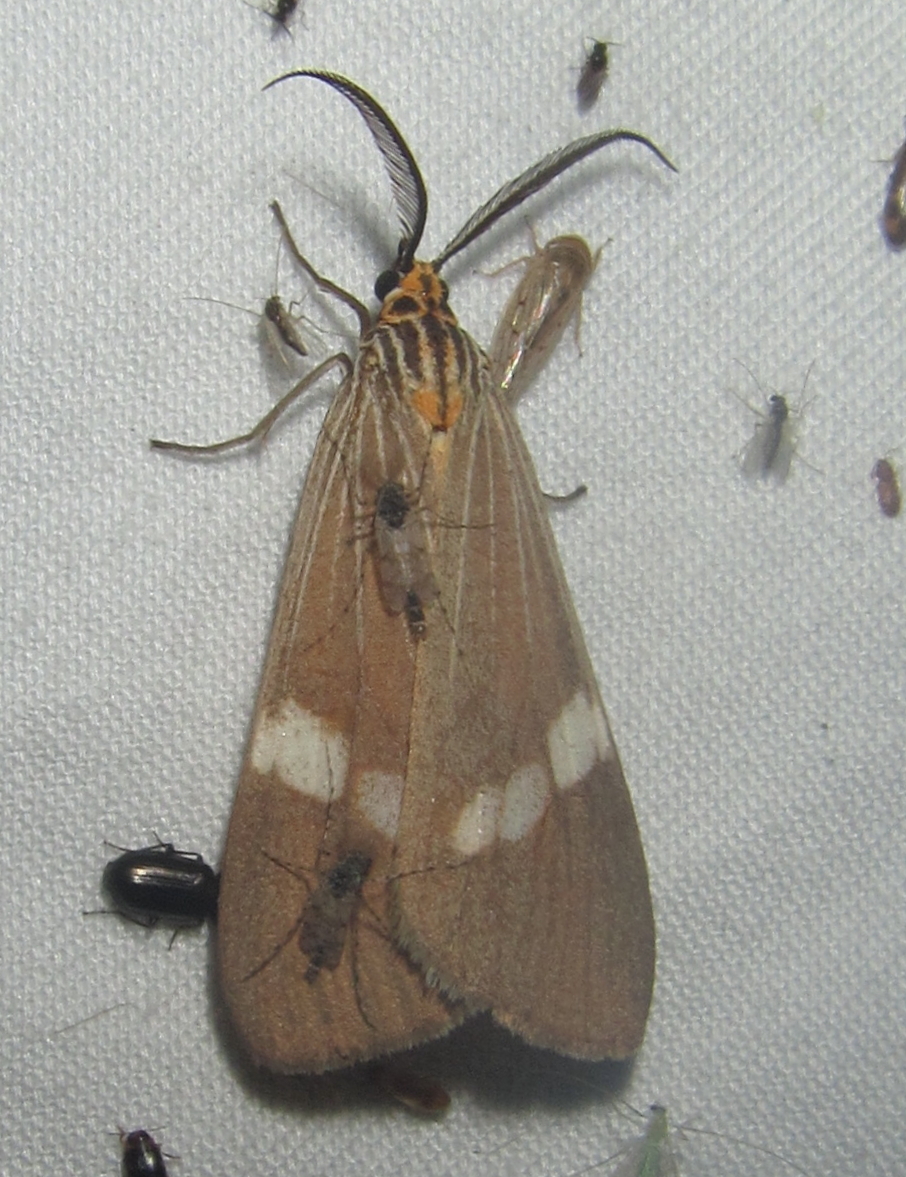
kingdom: Animalia
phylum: Arthropoda
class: Insecta
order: Lepidoptera
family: Erebidae
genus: Secusio
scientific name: Secusio strigata
